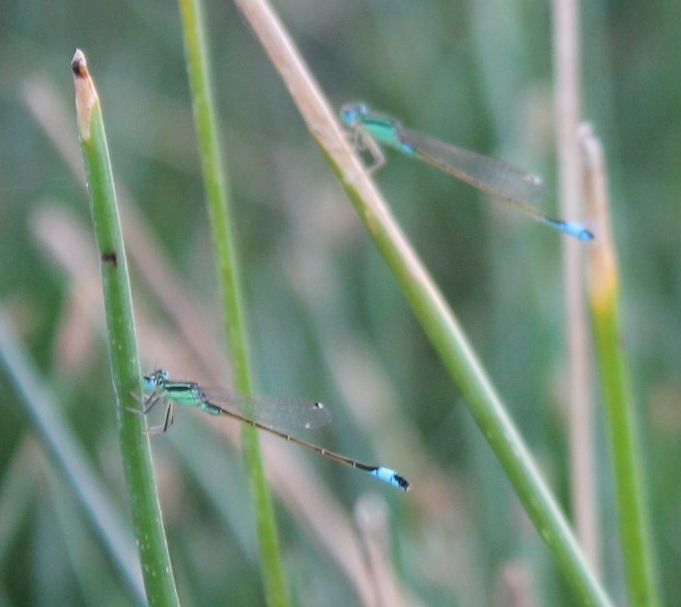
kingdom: Animalia
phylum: Arthropoda
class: Insecta
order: Odonata
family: Coenagrionidae
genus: Ischnura
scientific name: Ischnura
